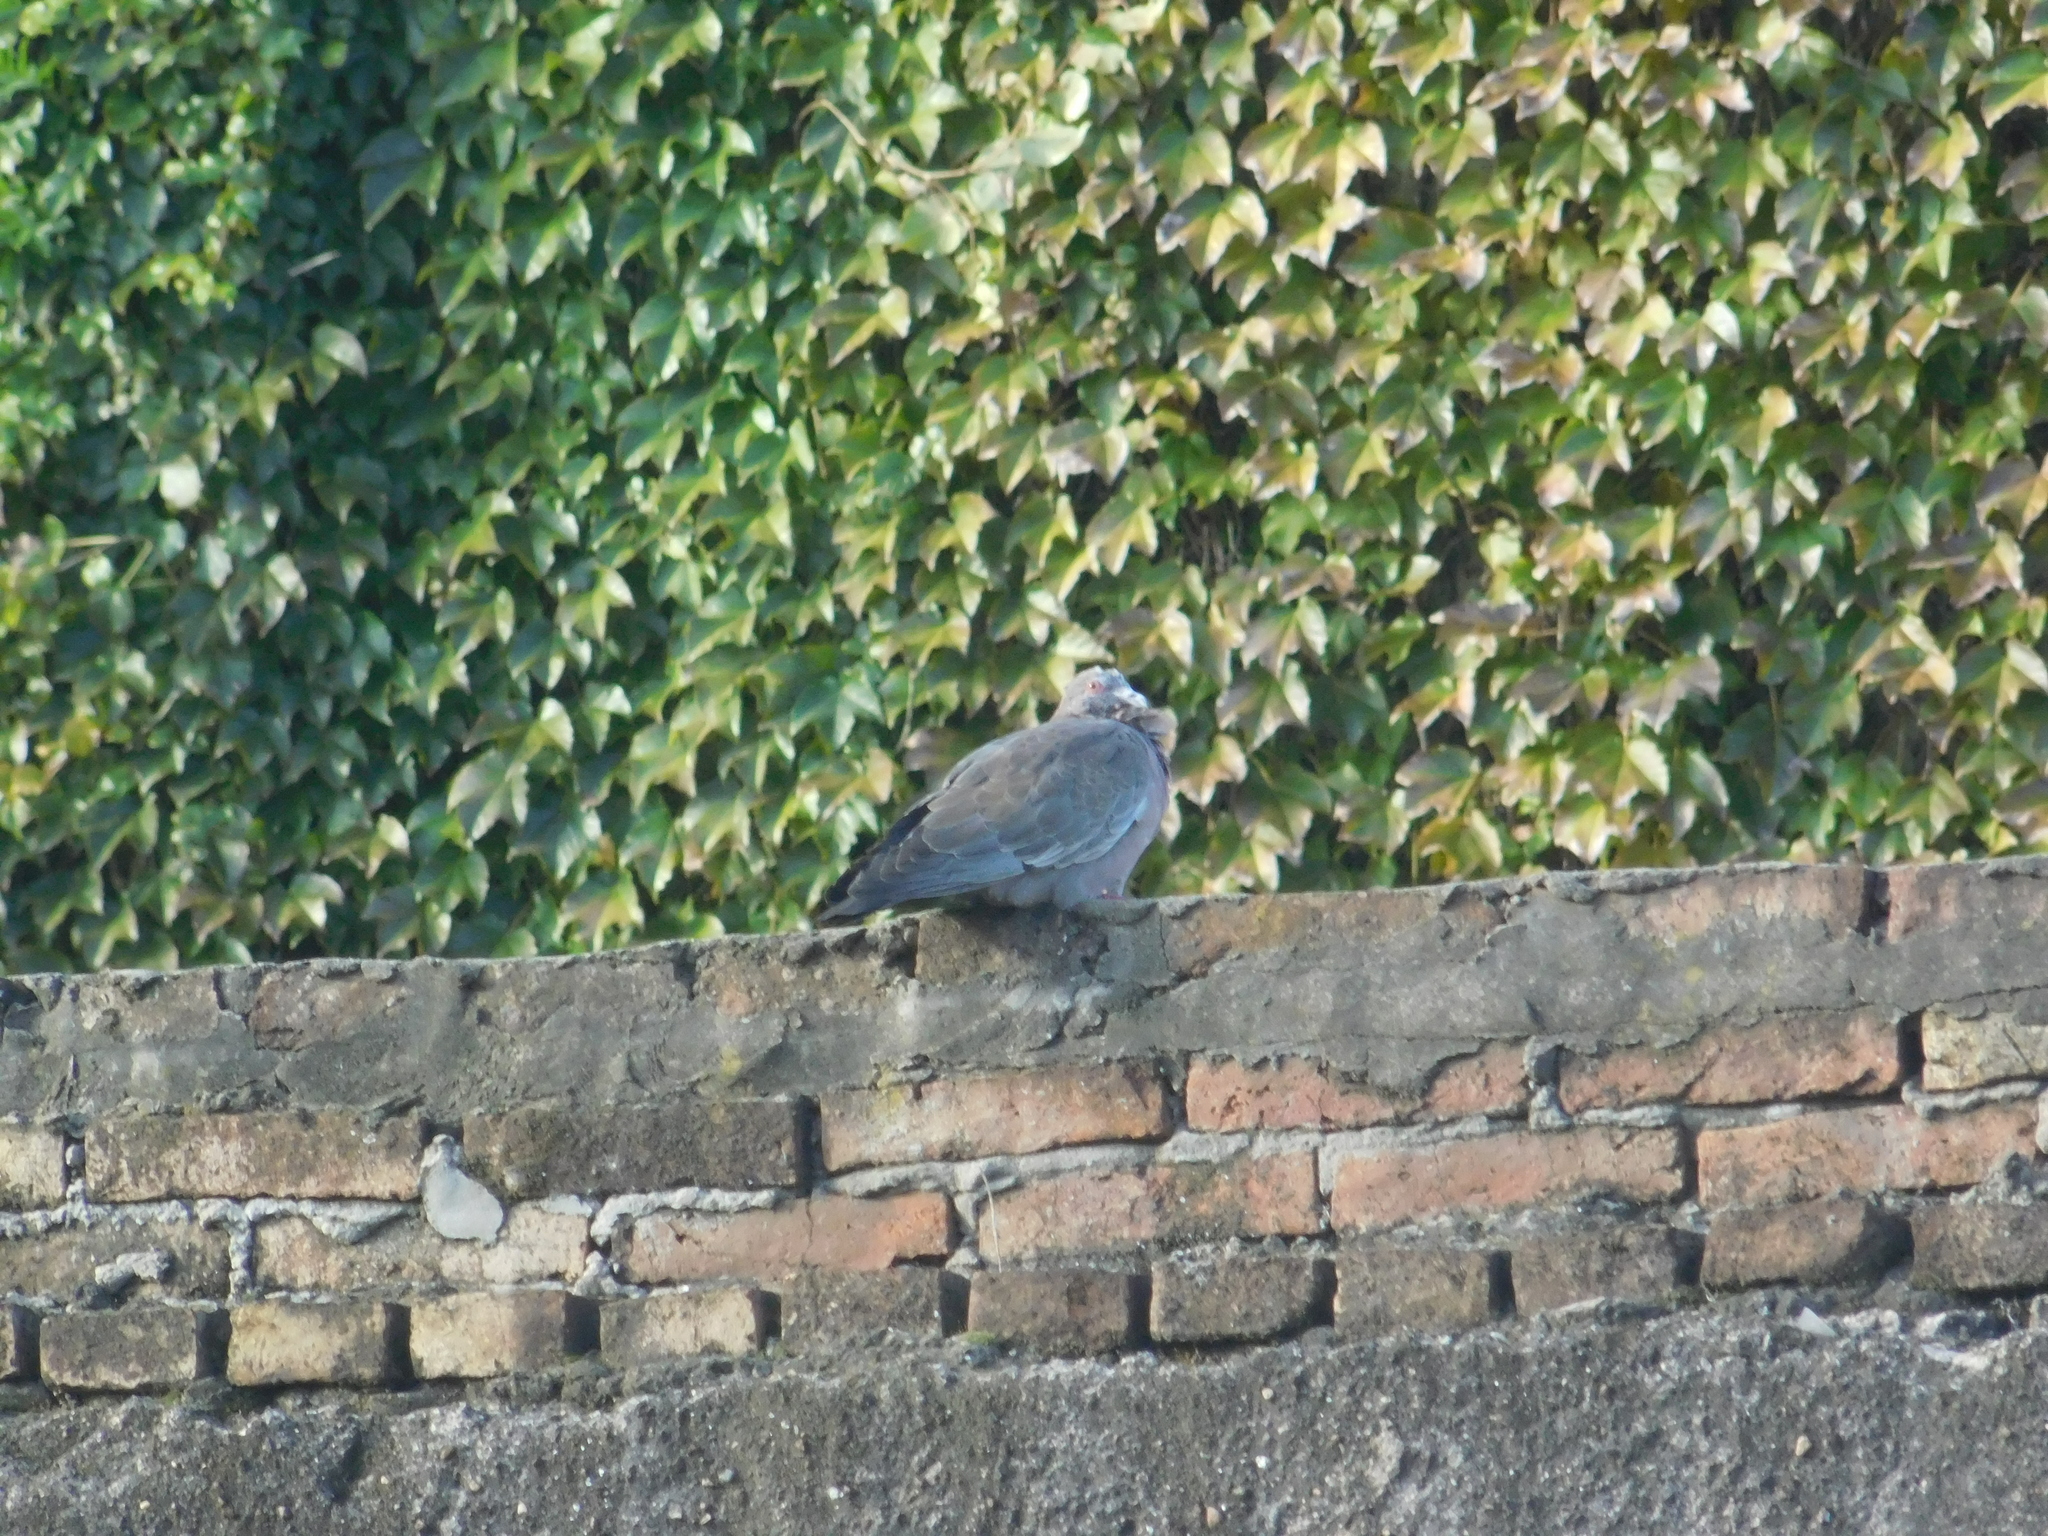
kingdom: Animalia
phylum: Chordata
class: Aves
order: Columbiformes
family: Columbidae
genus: Patagioenas
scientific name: Patagioenas picazuro
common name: Picazuro pigeon
